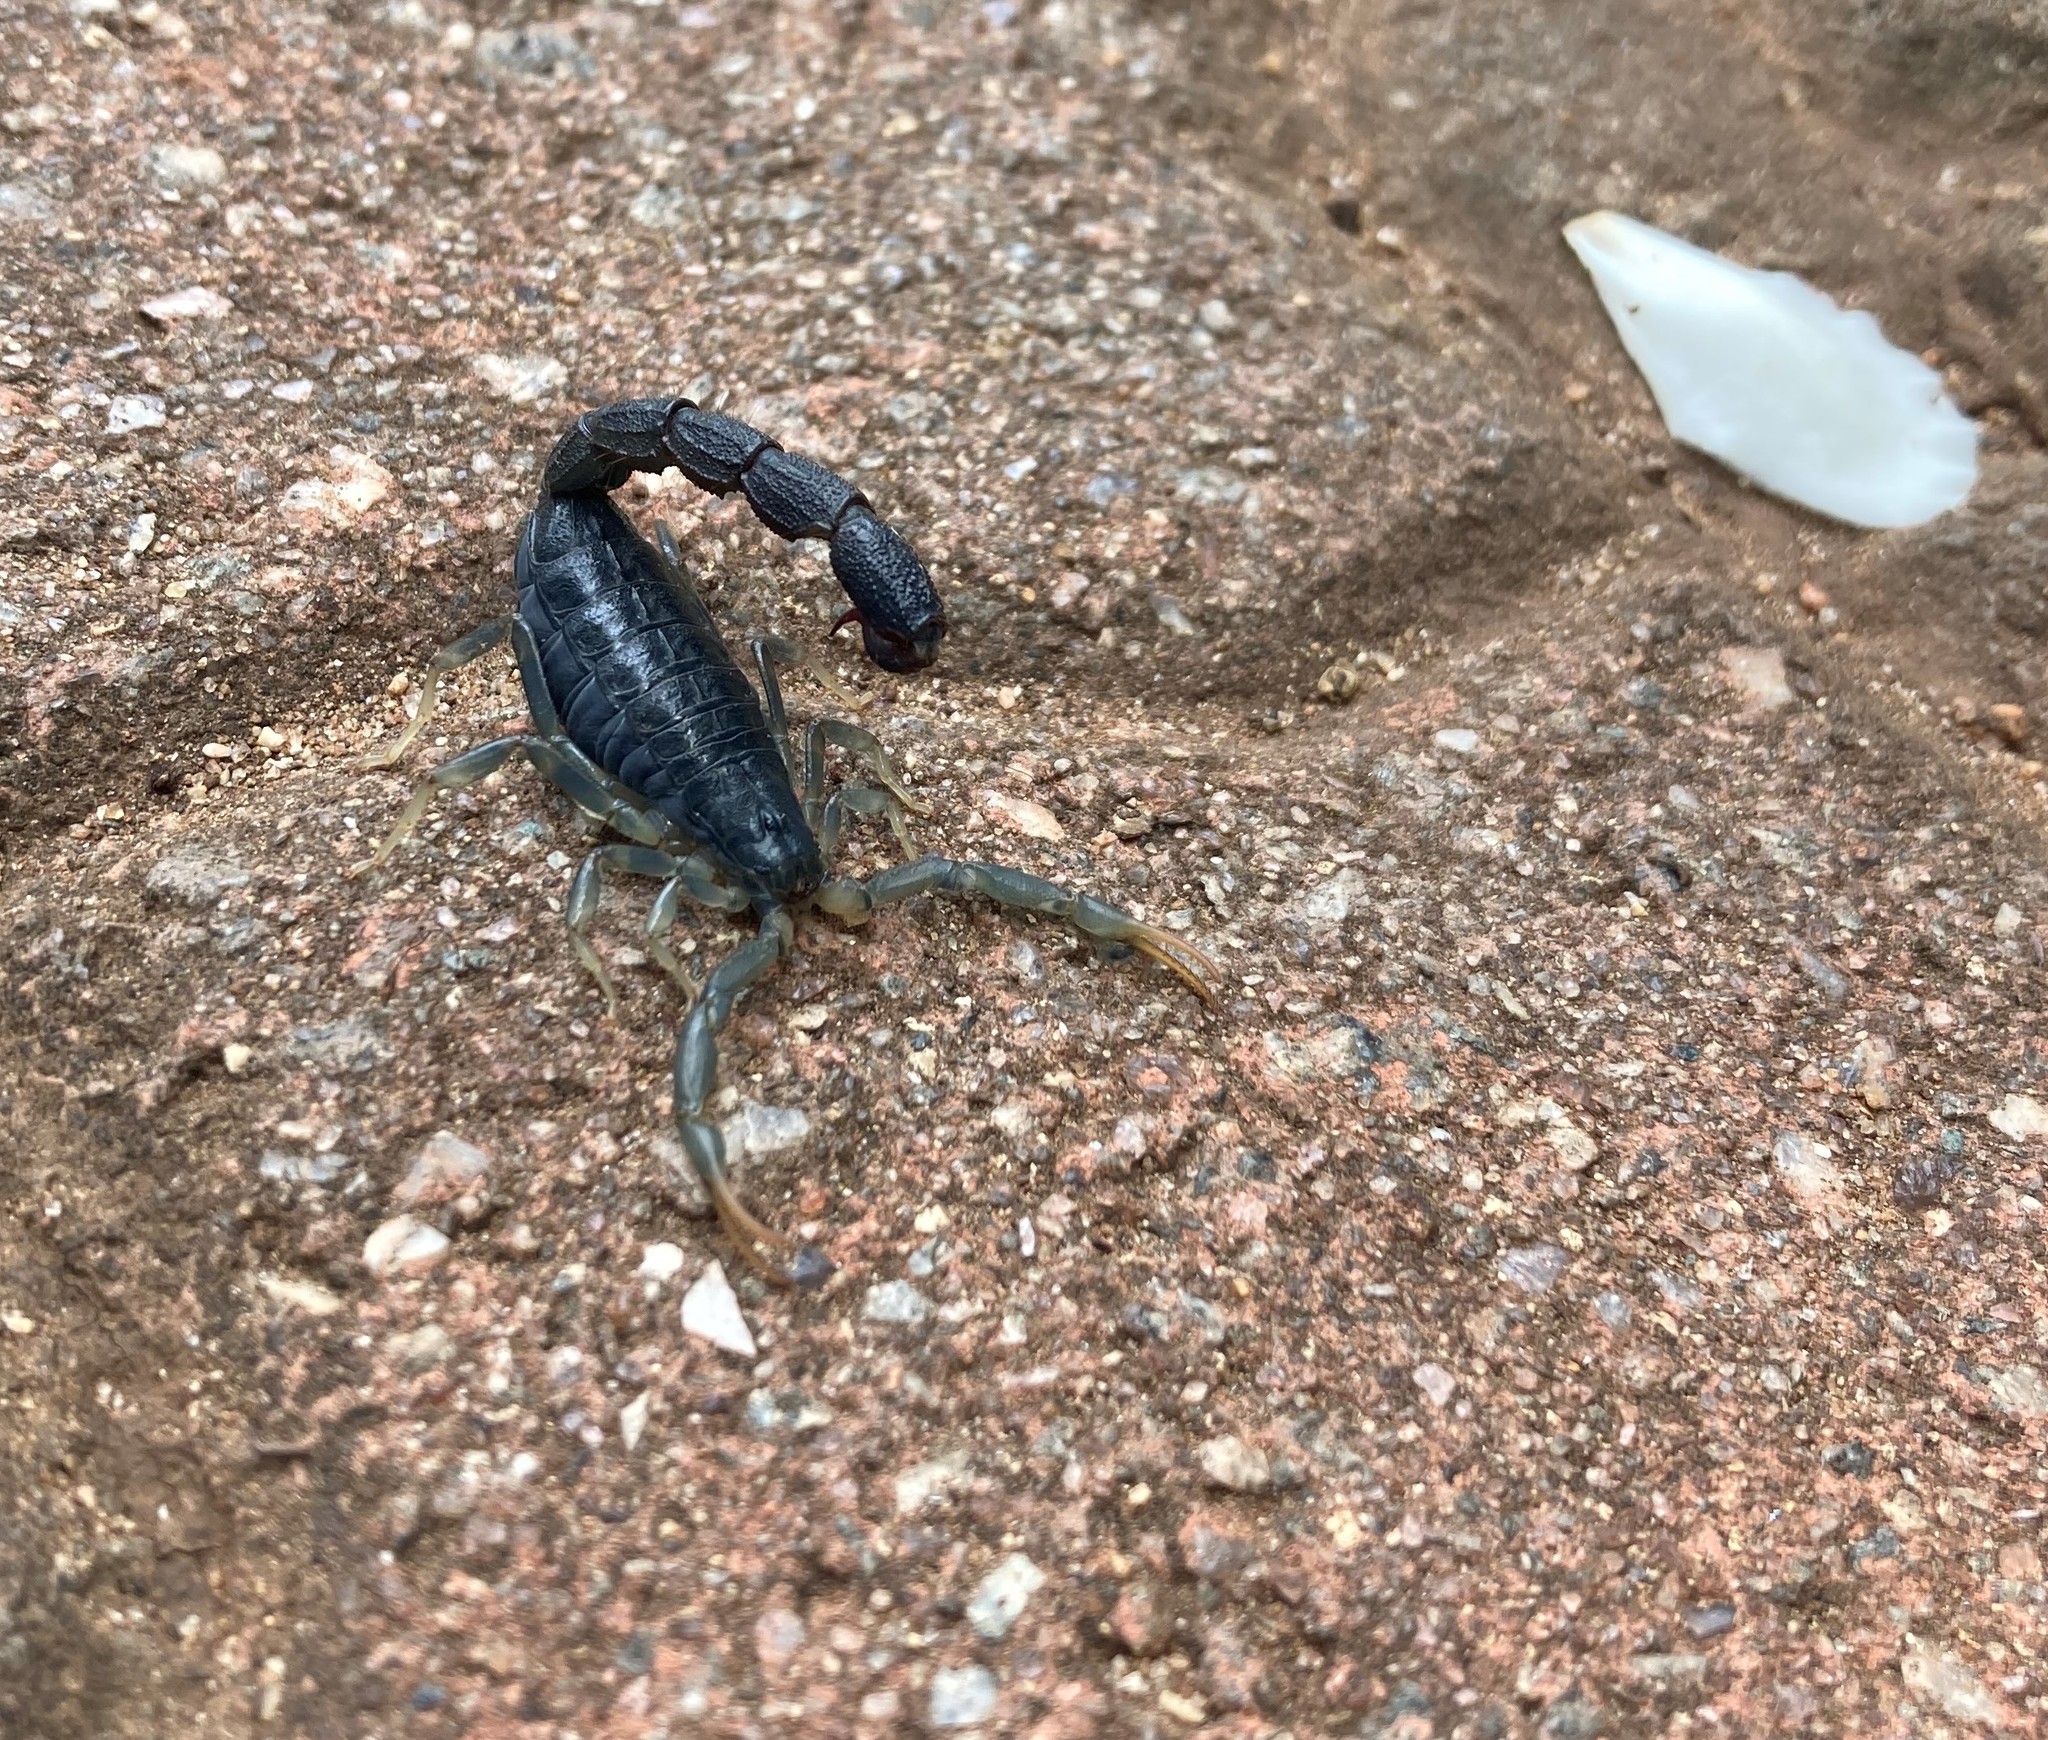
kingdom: Animalia
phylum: Arthropoda
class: Arachnida
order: Scorpiones
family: Buthidae
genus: Uroplectes
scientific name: Uroplectes olivaceus
